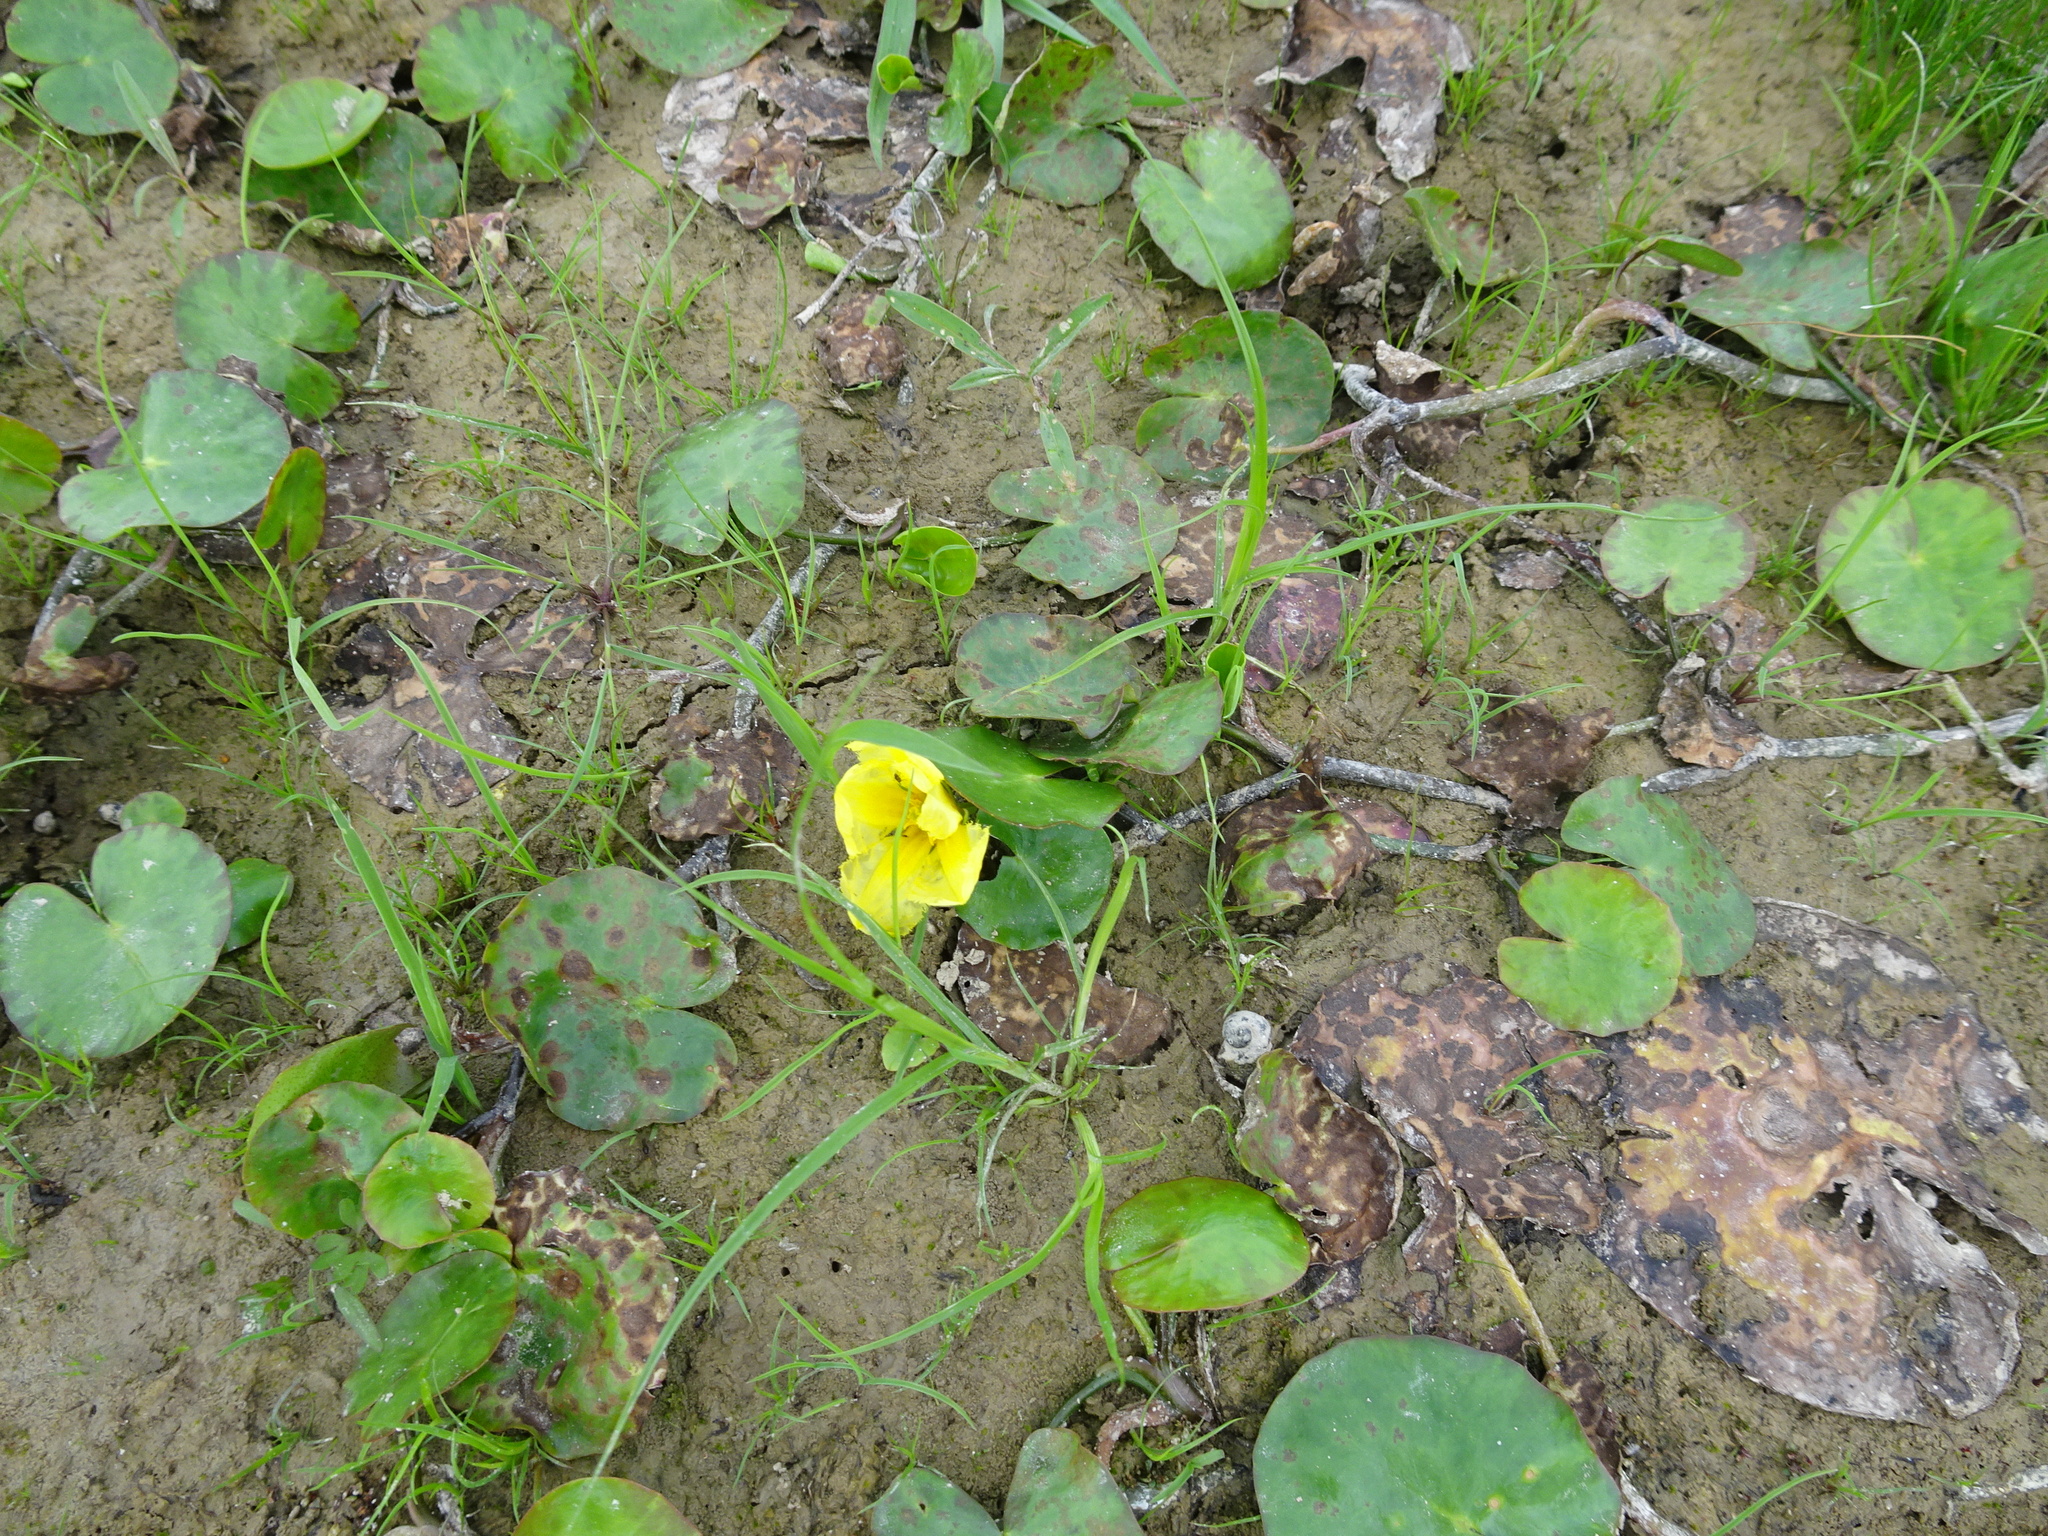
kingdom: Plantae
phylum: Tracheophyta
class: Magnoliopsida
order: Asterales
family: Menyanthaceae
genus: Nymphoides
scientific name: Nymphoides peltata
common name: Fringed water-lily
